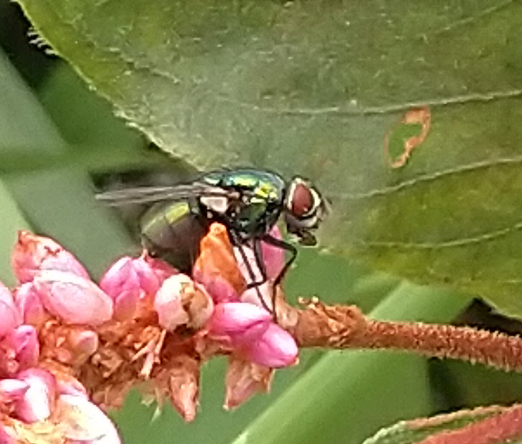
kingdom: Animalia
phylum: Arthropoda
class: Insecta
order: Diptera
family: Calliphoridae
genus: Lucilia
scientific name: Lucilia sericata
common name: Blow fly
